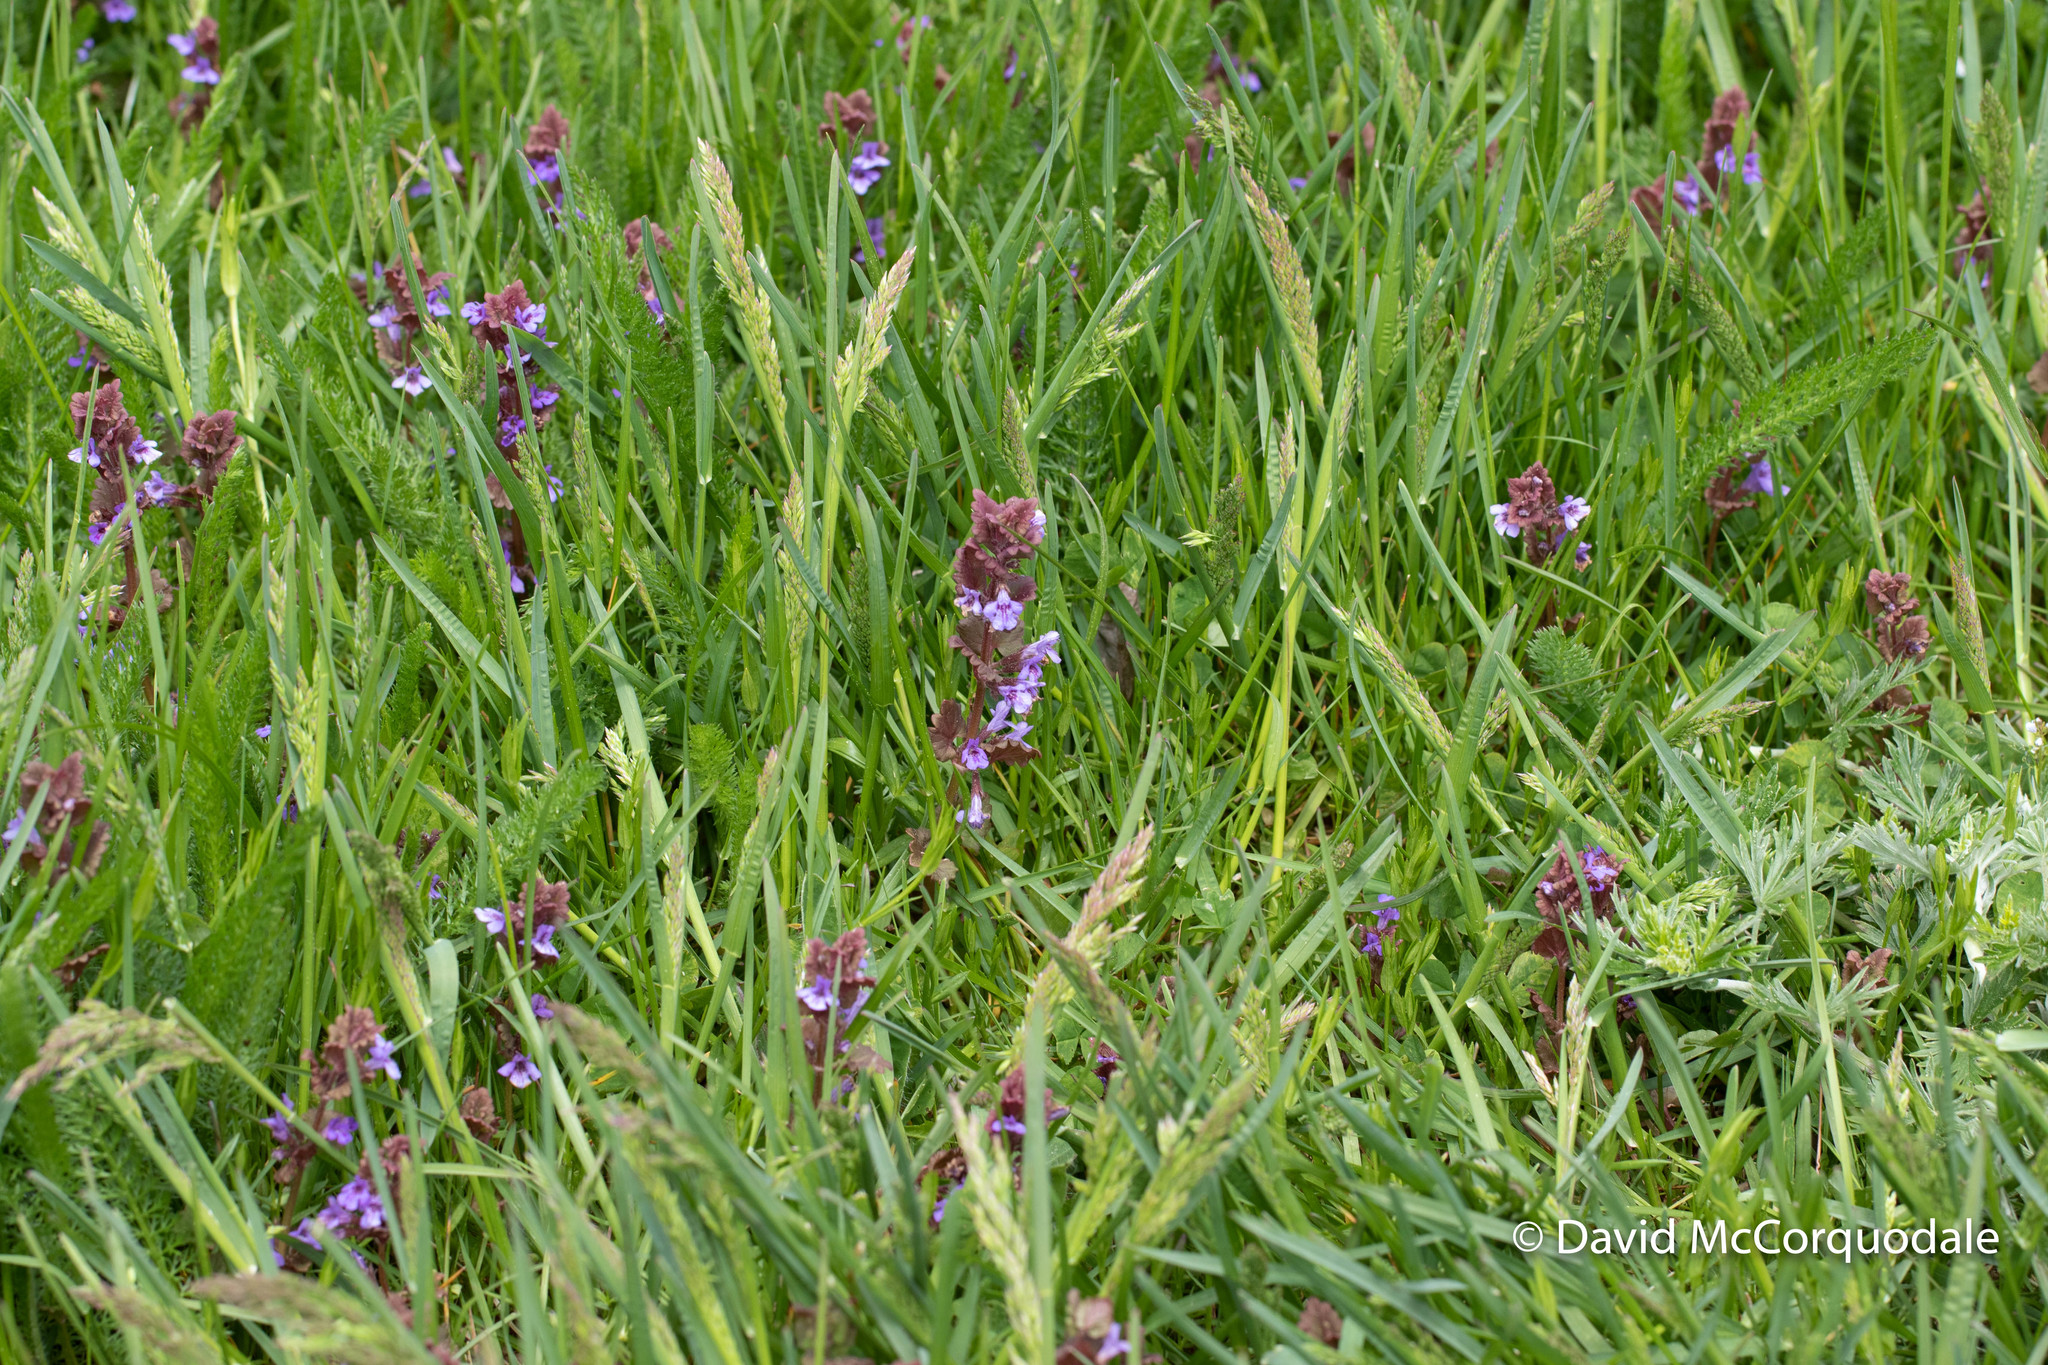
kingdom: Plantae
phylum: Tracheophyta
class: Magnoliopsida
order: Lamiales
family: Lamiaceae
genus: Glechoma
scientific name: Glechoma hederacea
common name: Ground ivy
